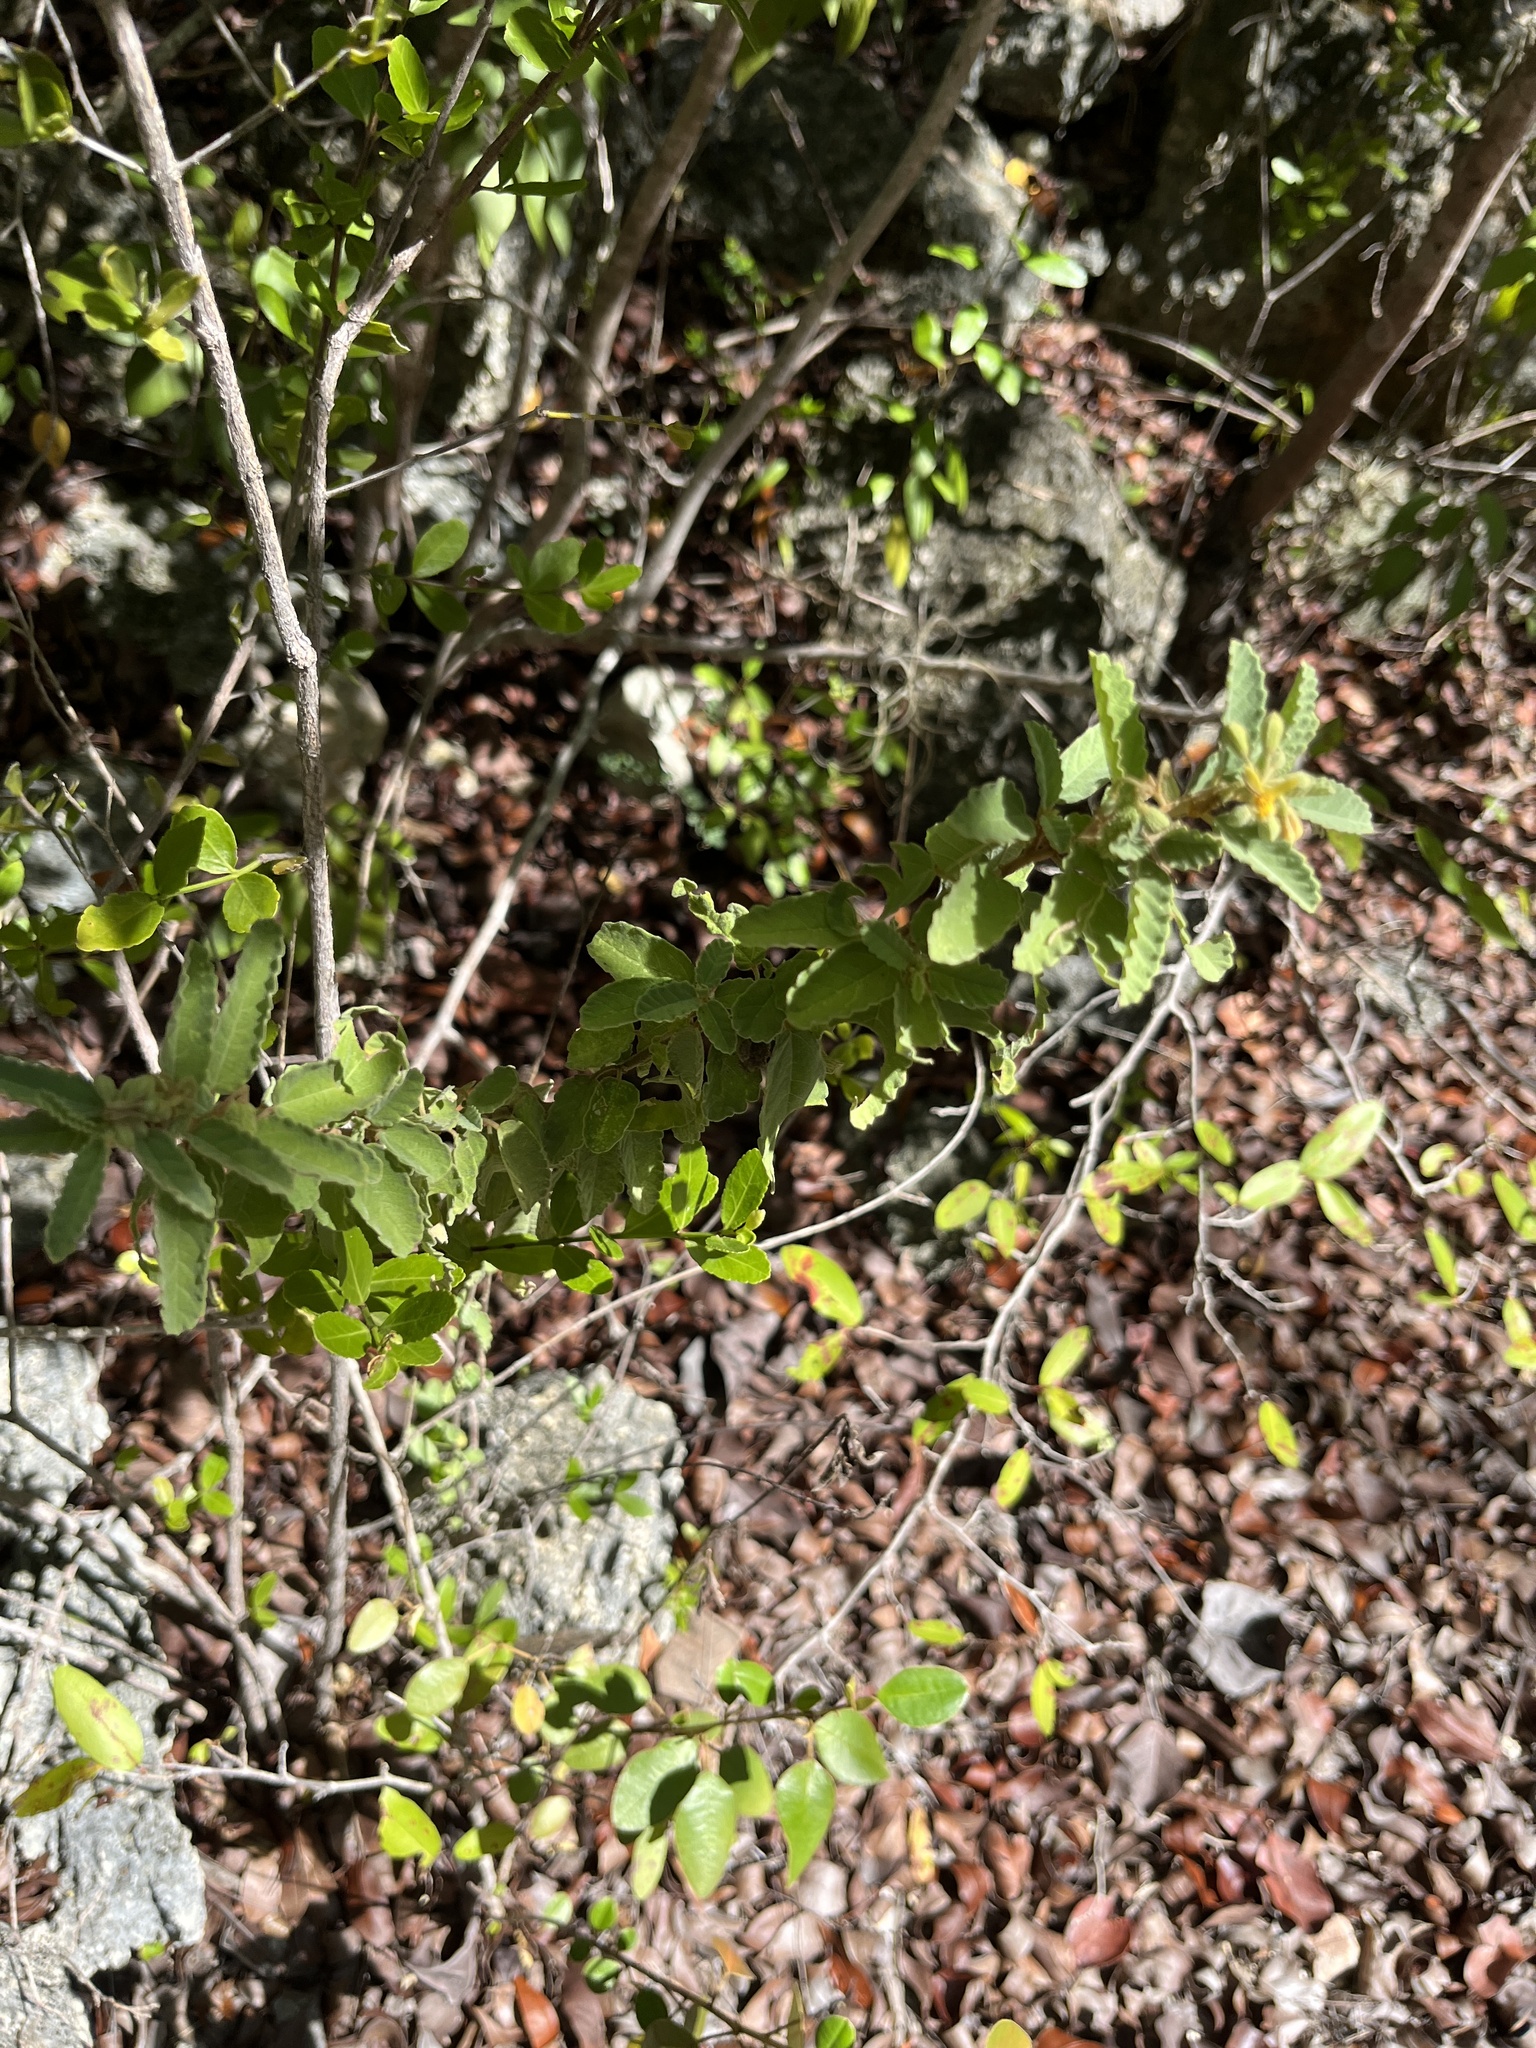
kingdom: Plantae
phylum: Tracheophyta
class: Magnoliopsida
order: Malvales
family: Malvaceae
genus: Corchorus
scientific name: Corchorus hirsutus
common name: Jackswitch
